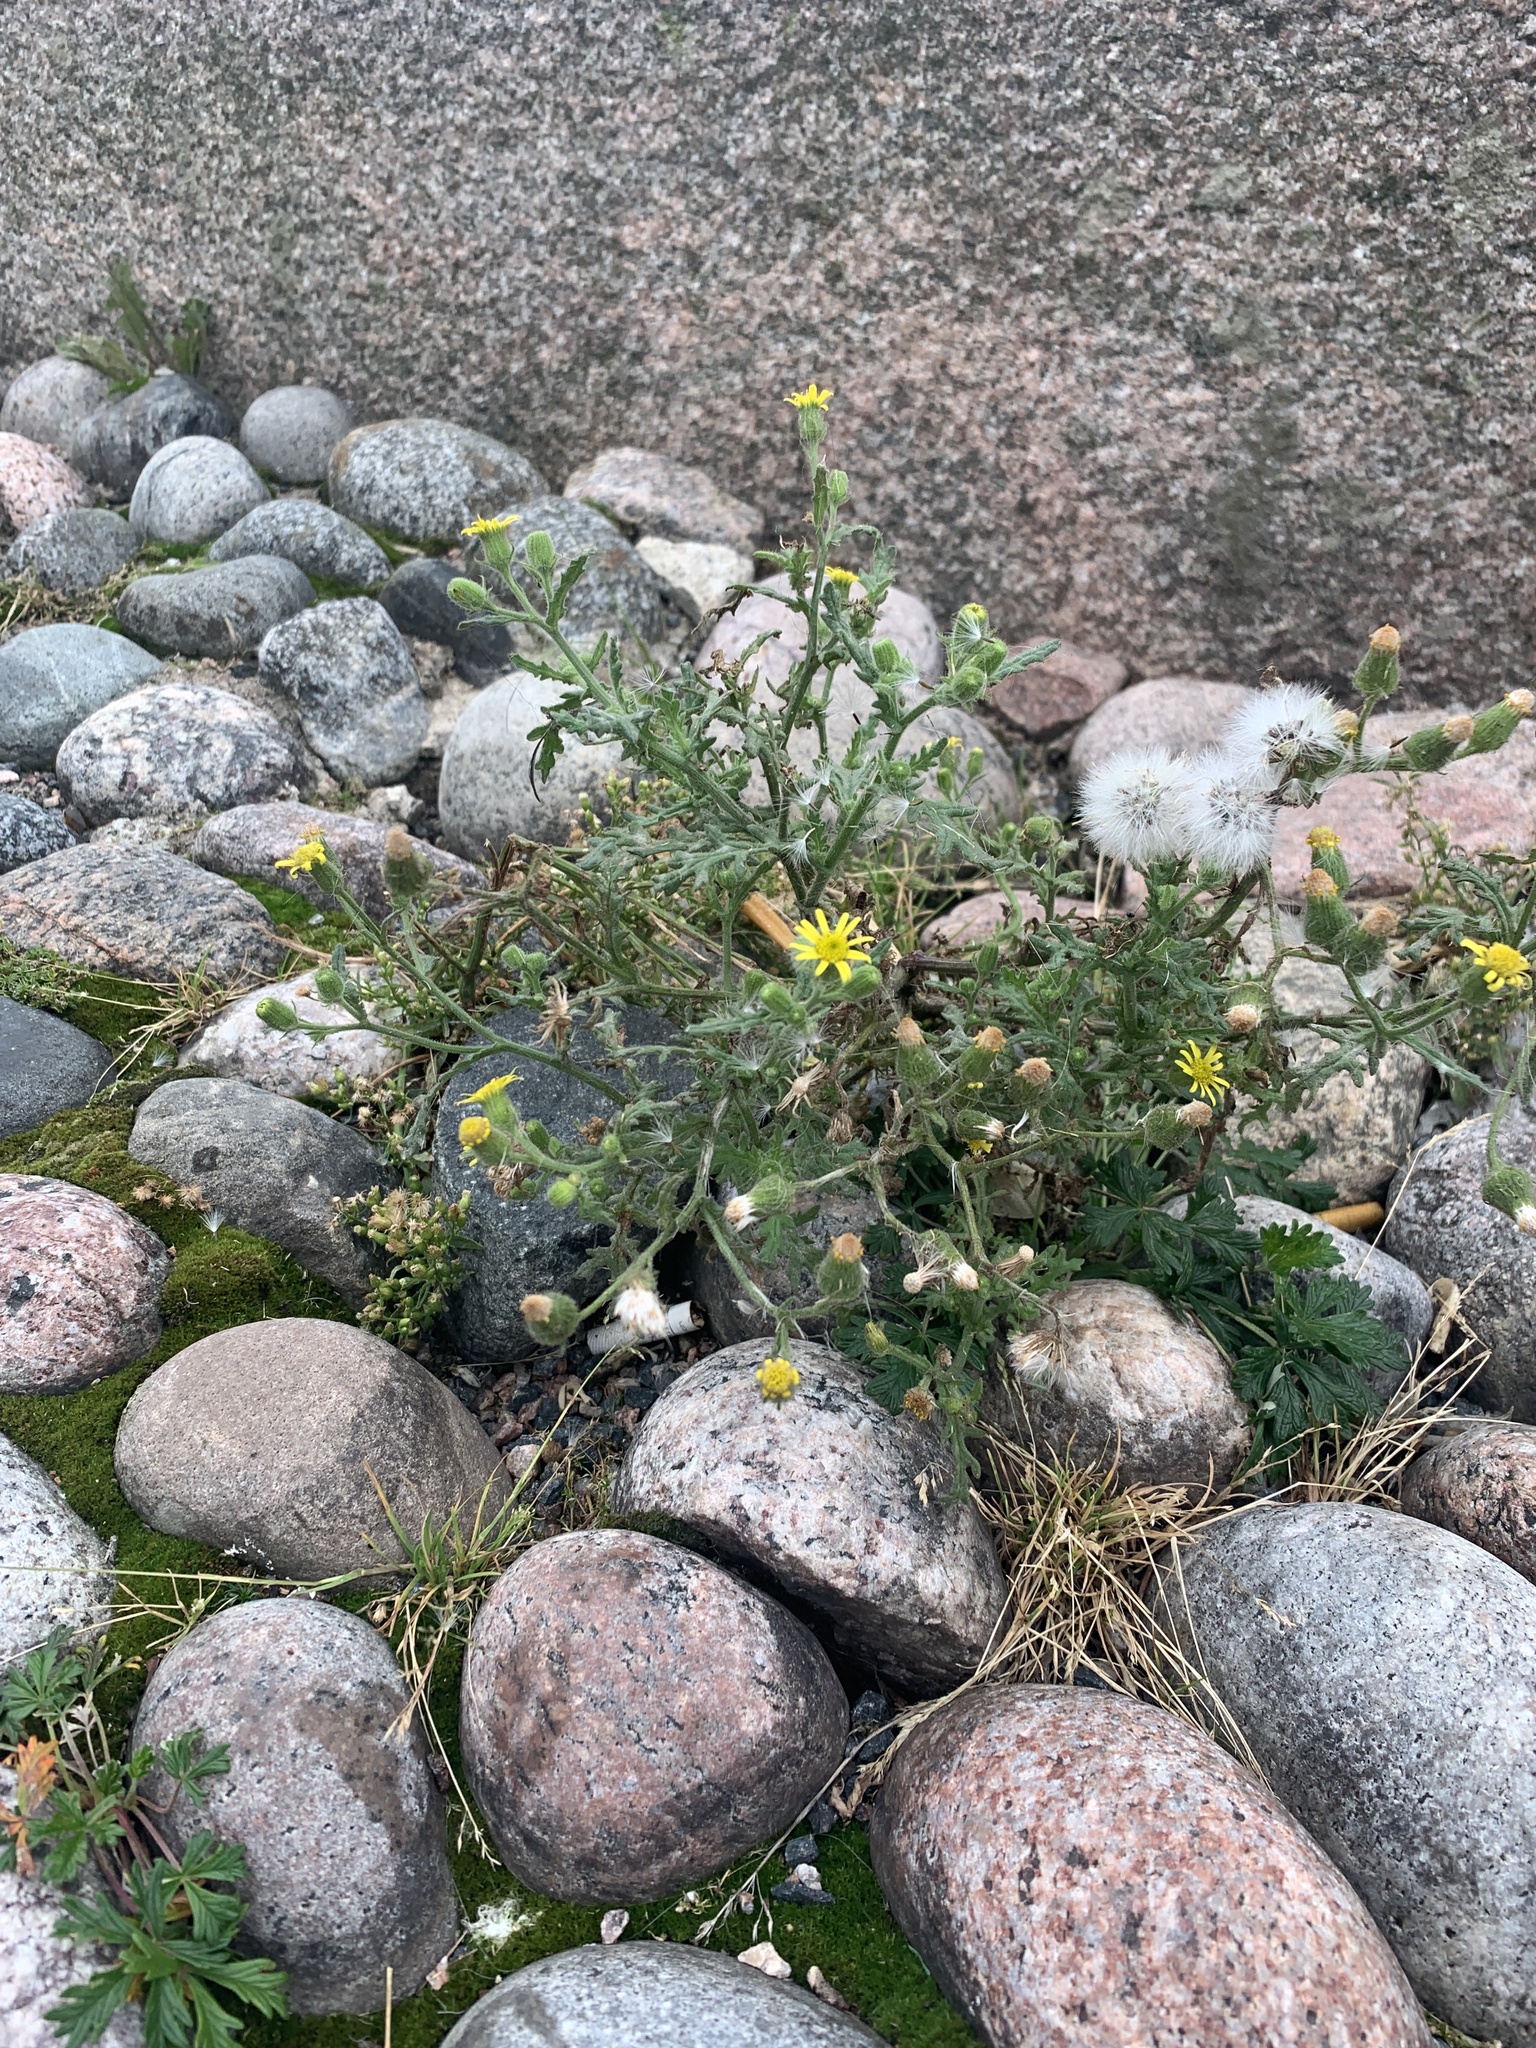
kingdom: Plantae
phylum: Tracheophyta
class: Magnoliopsida
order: Asterales
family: Asteraceae
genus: Senecio
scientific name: Senecio viscosus
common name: Sticky groundsel
